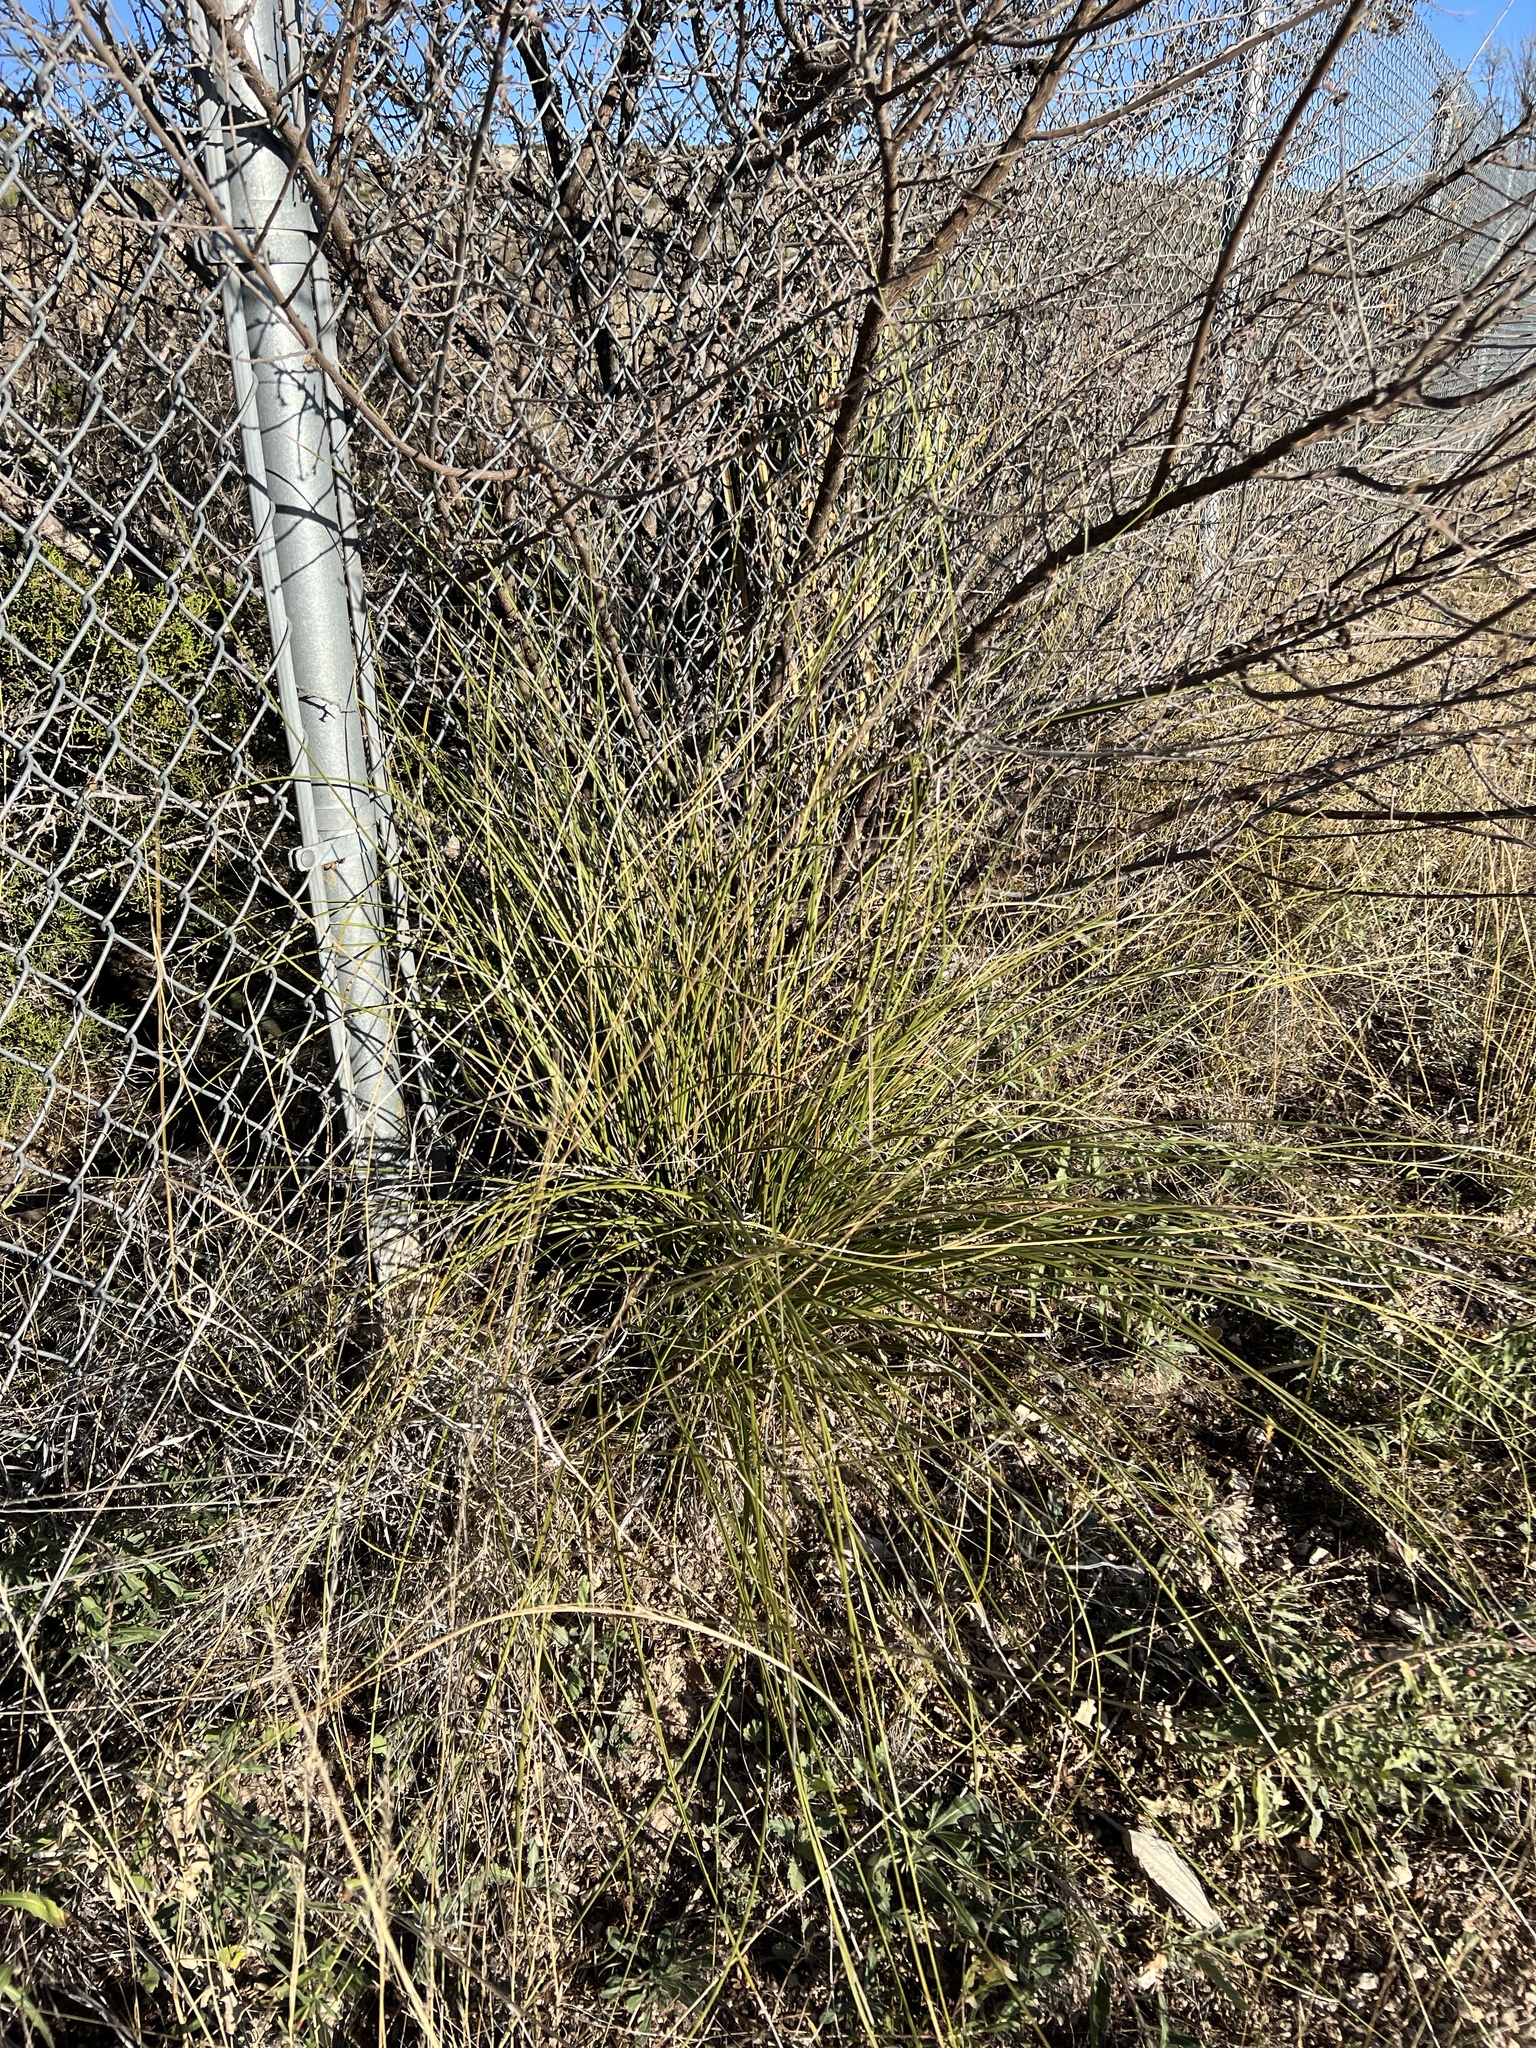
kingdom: Plantae
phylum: Tracheophyta
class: Liliopsida
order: Asparagales
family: Asparagaceae
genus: Nolina
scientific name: Nolina texana
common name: Texas sacahuiste
